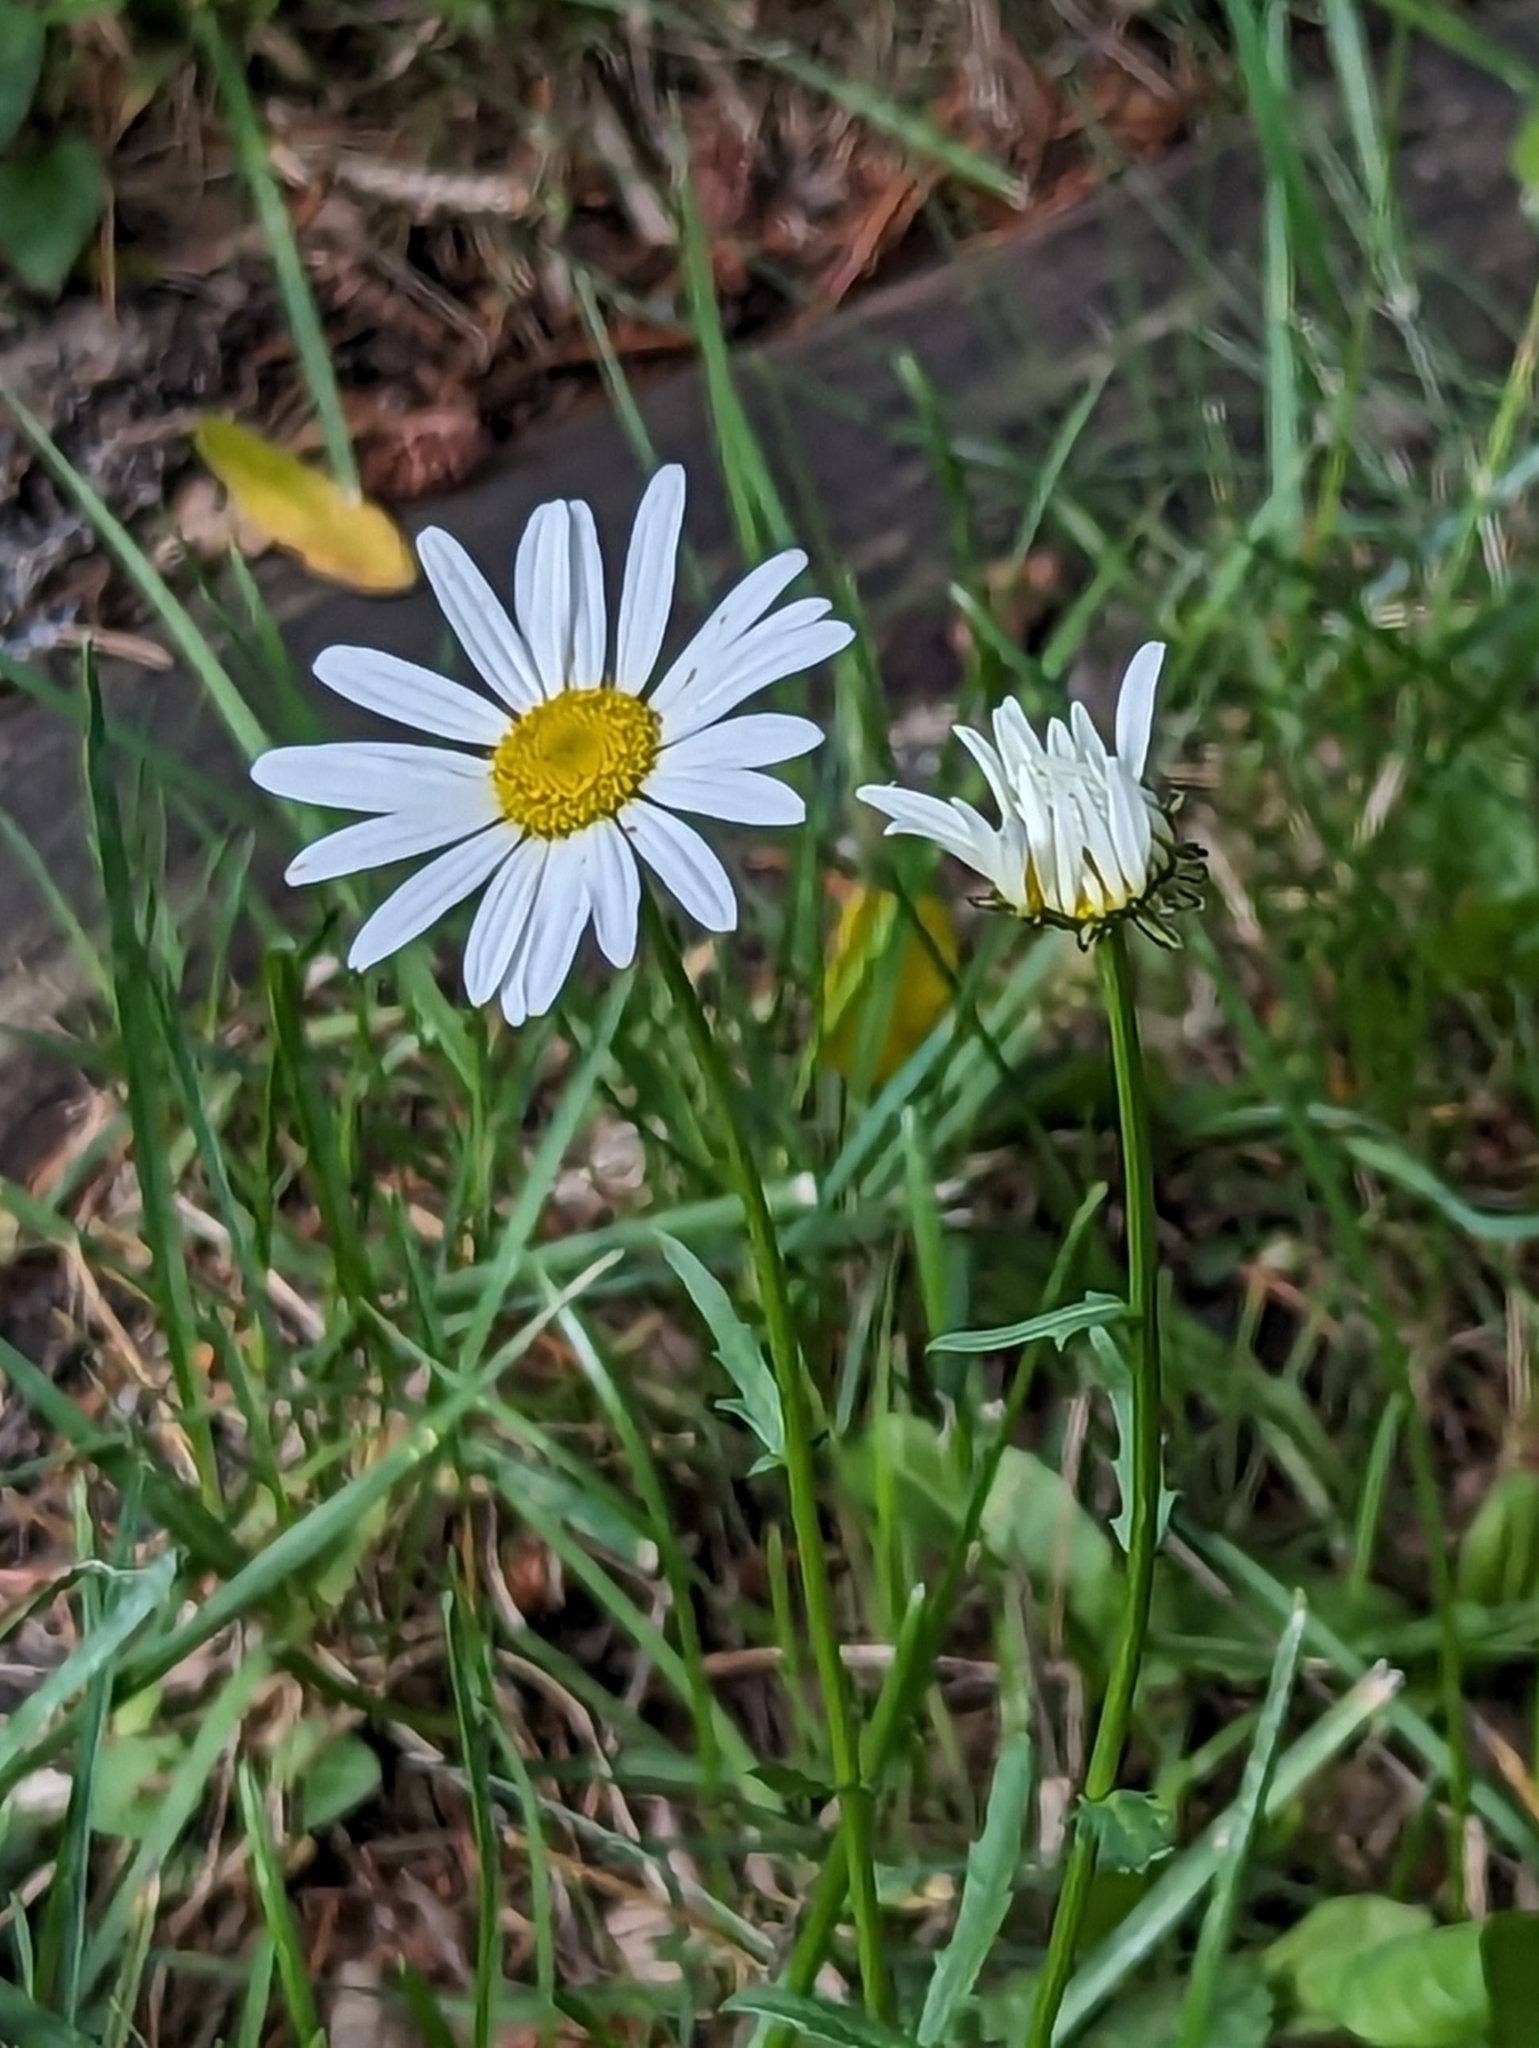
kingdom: Plantae
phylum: Tracheophyta
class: Magnoliopsida
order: Asterales
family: Asteraceae
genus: Leucanthemum
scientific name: Leucanthemum vulgare
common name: Oxeye daisy
